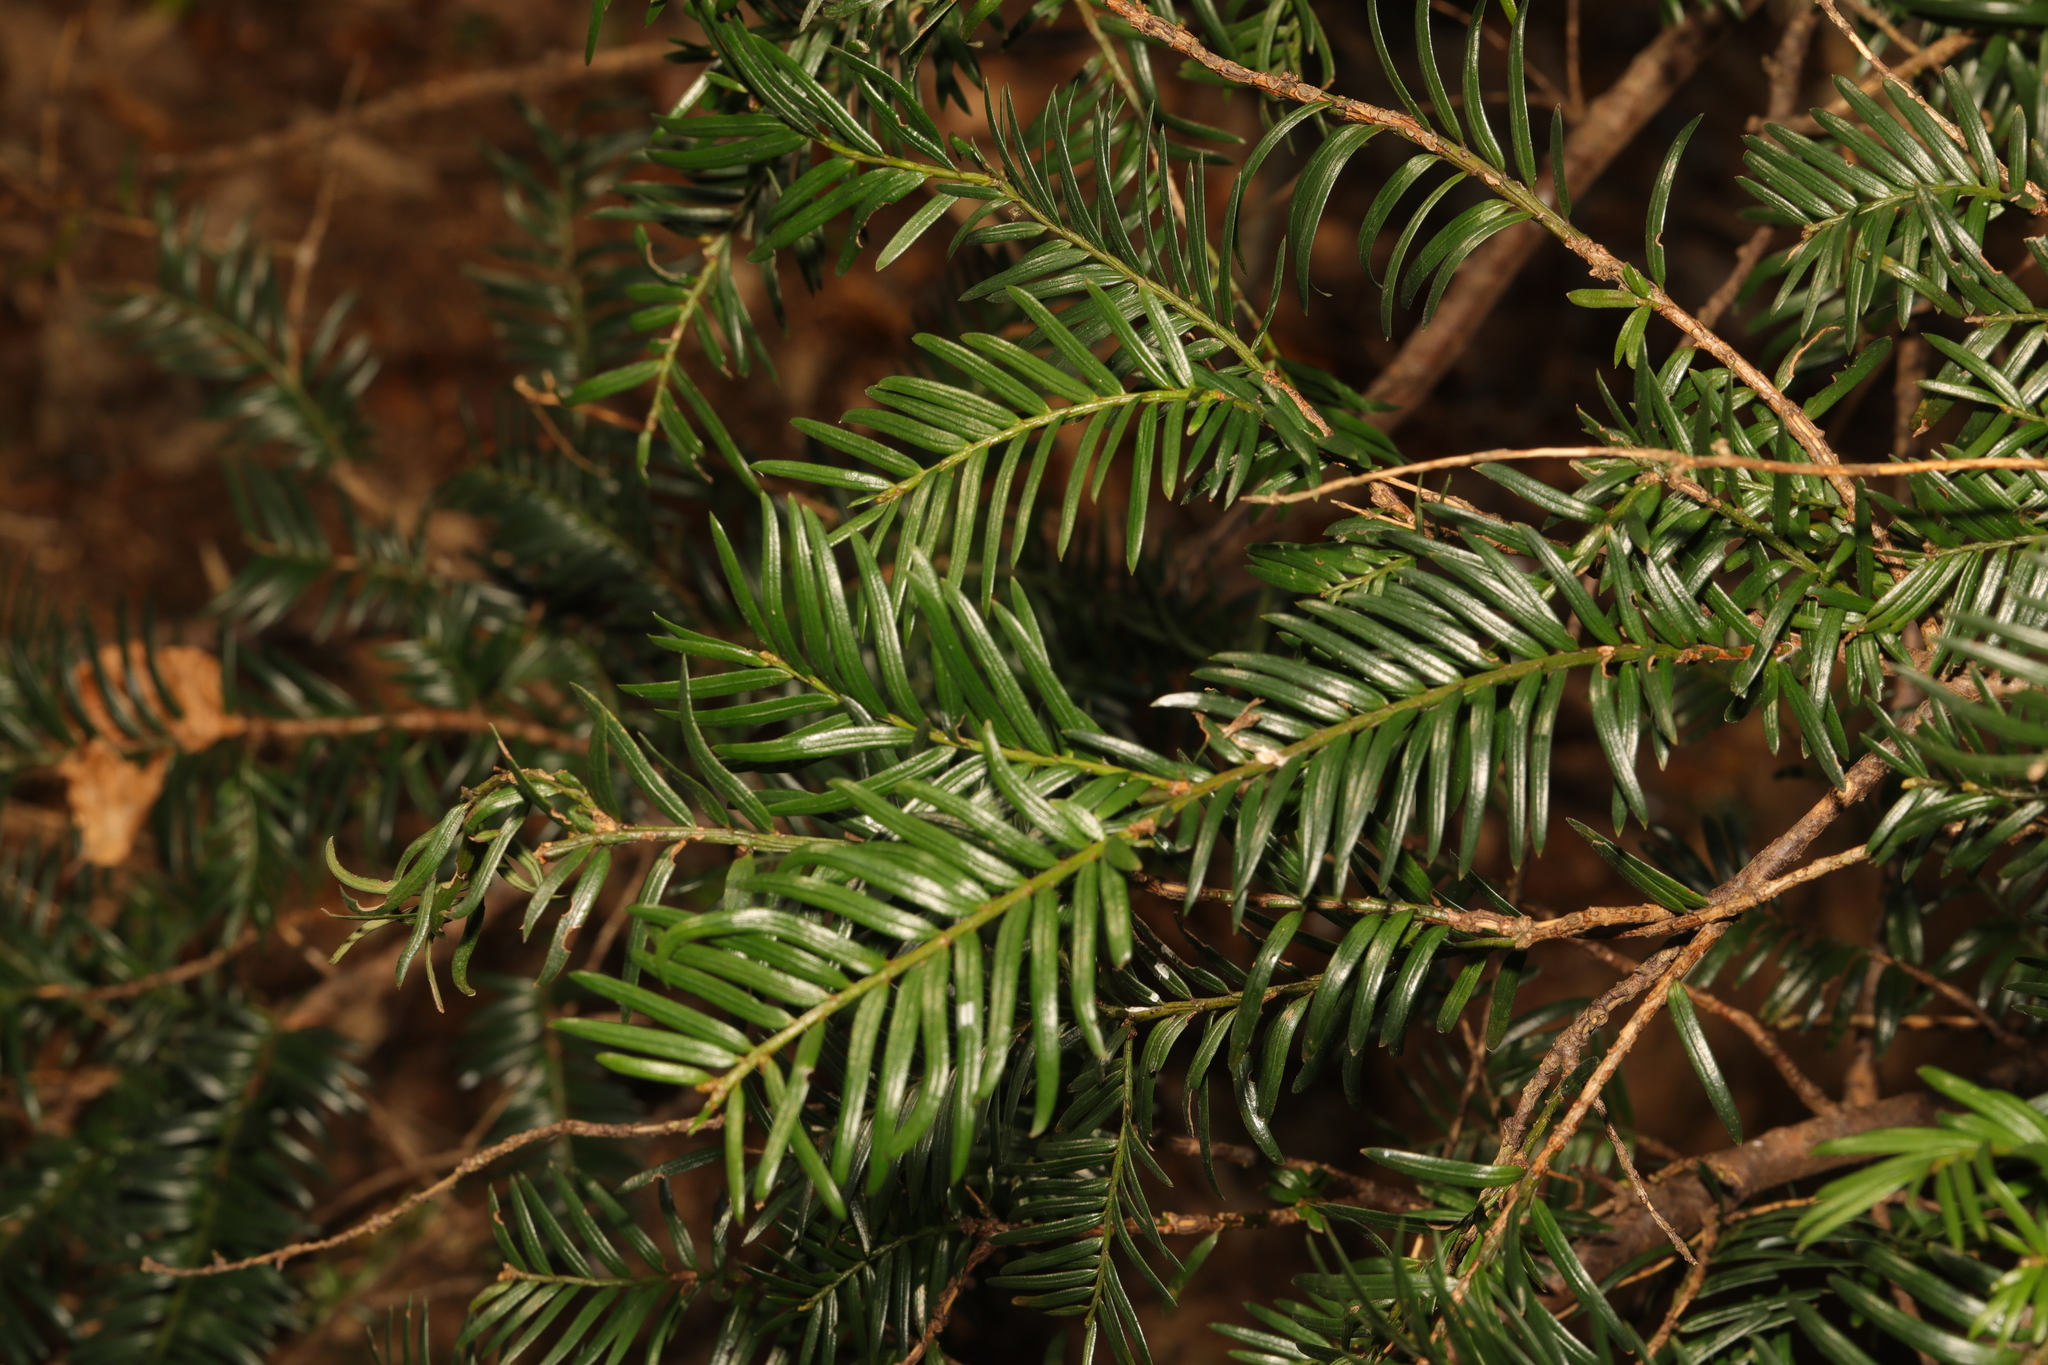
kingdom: Plantae
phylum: Tracheophyta
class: Pinopsida
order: Pinales
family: Taxaceae
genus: Taxus
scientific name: Taxus baccata
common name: Yew
